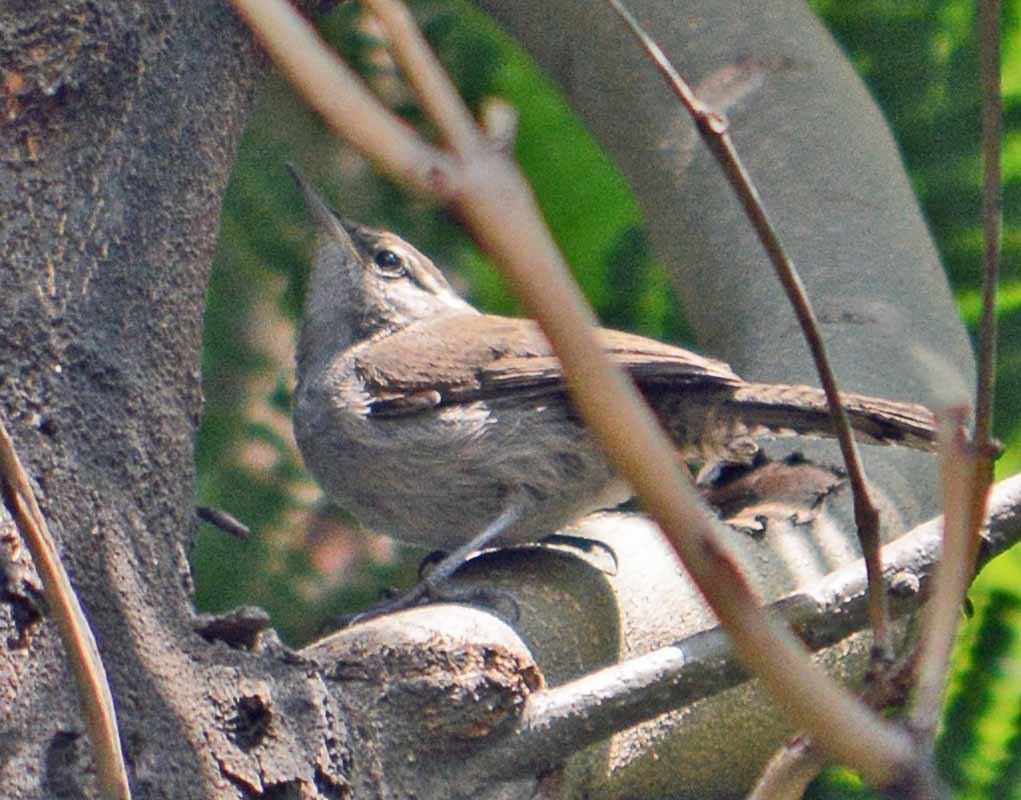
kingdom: Animalia
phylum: Chordata
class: Aves
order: Passeriformes
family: Troglodytidae
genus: Thryomanes
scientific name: Thryomanes bewickii
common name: Bewick's wren
